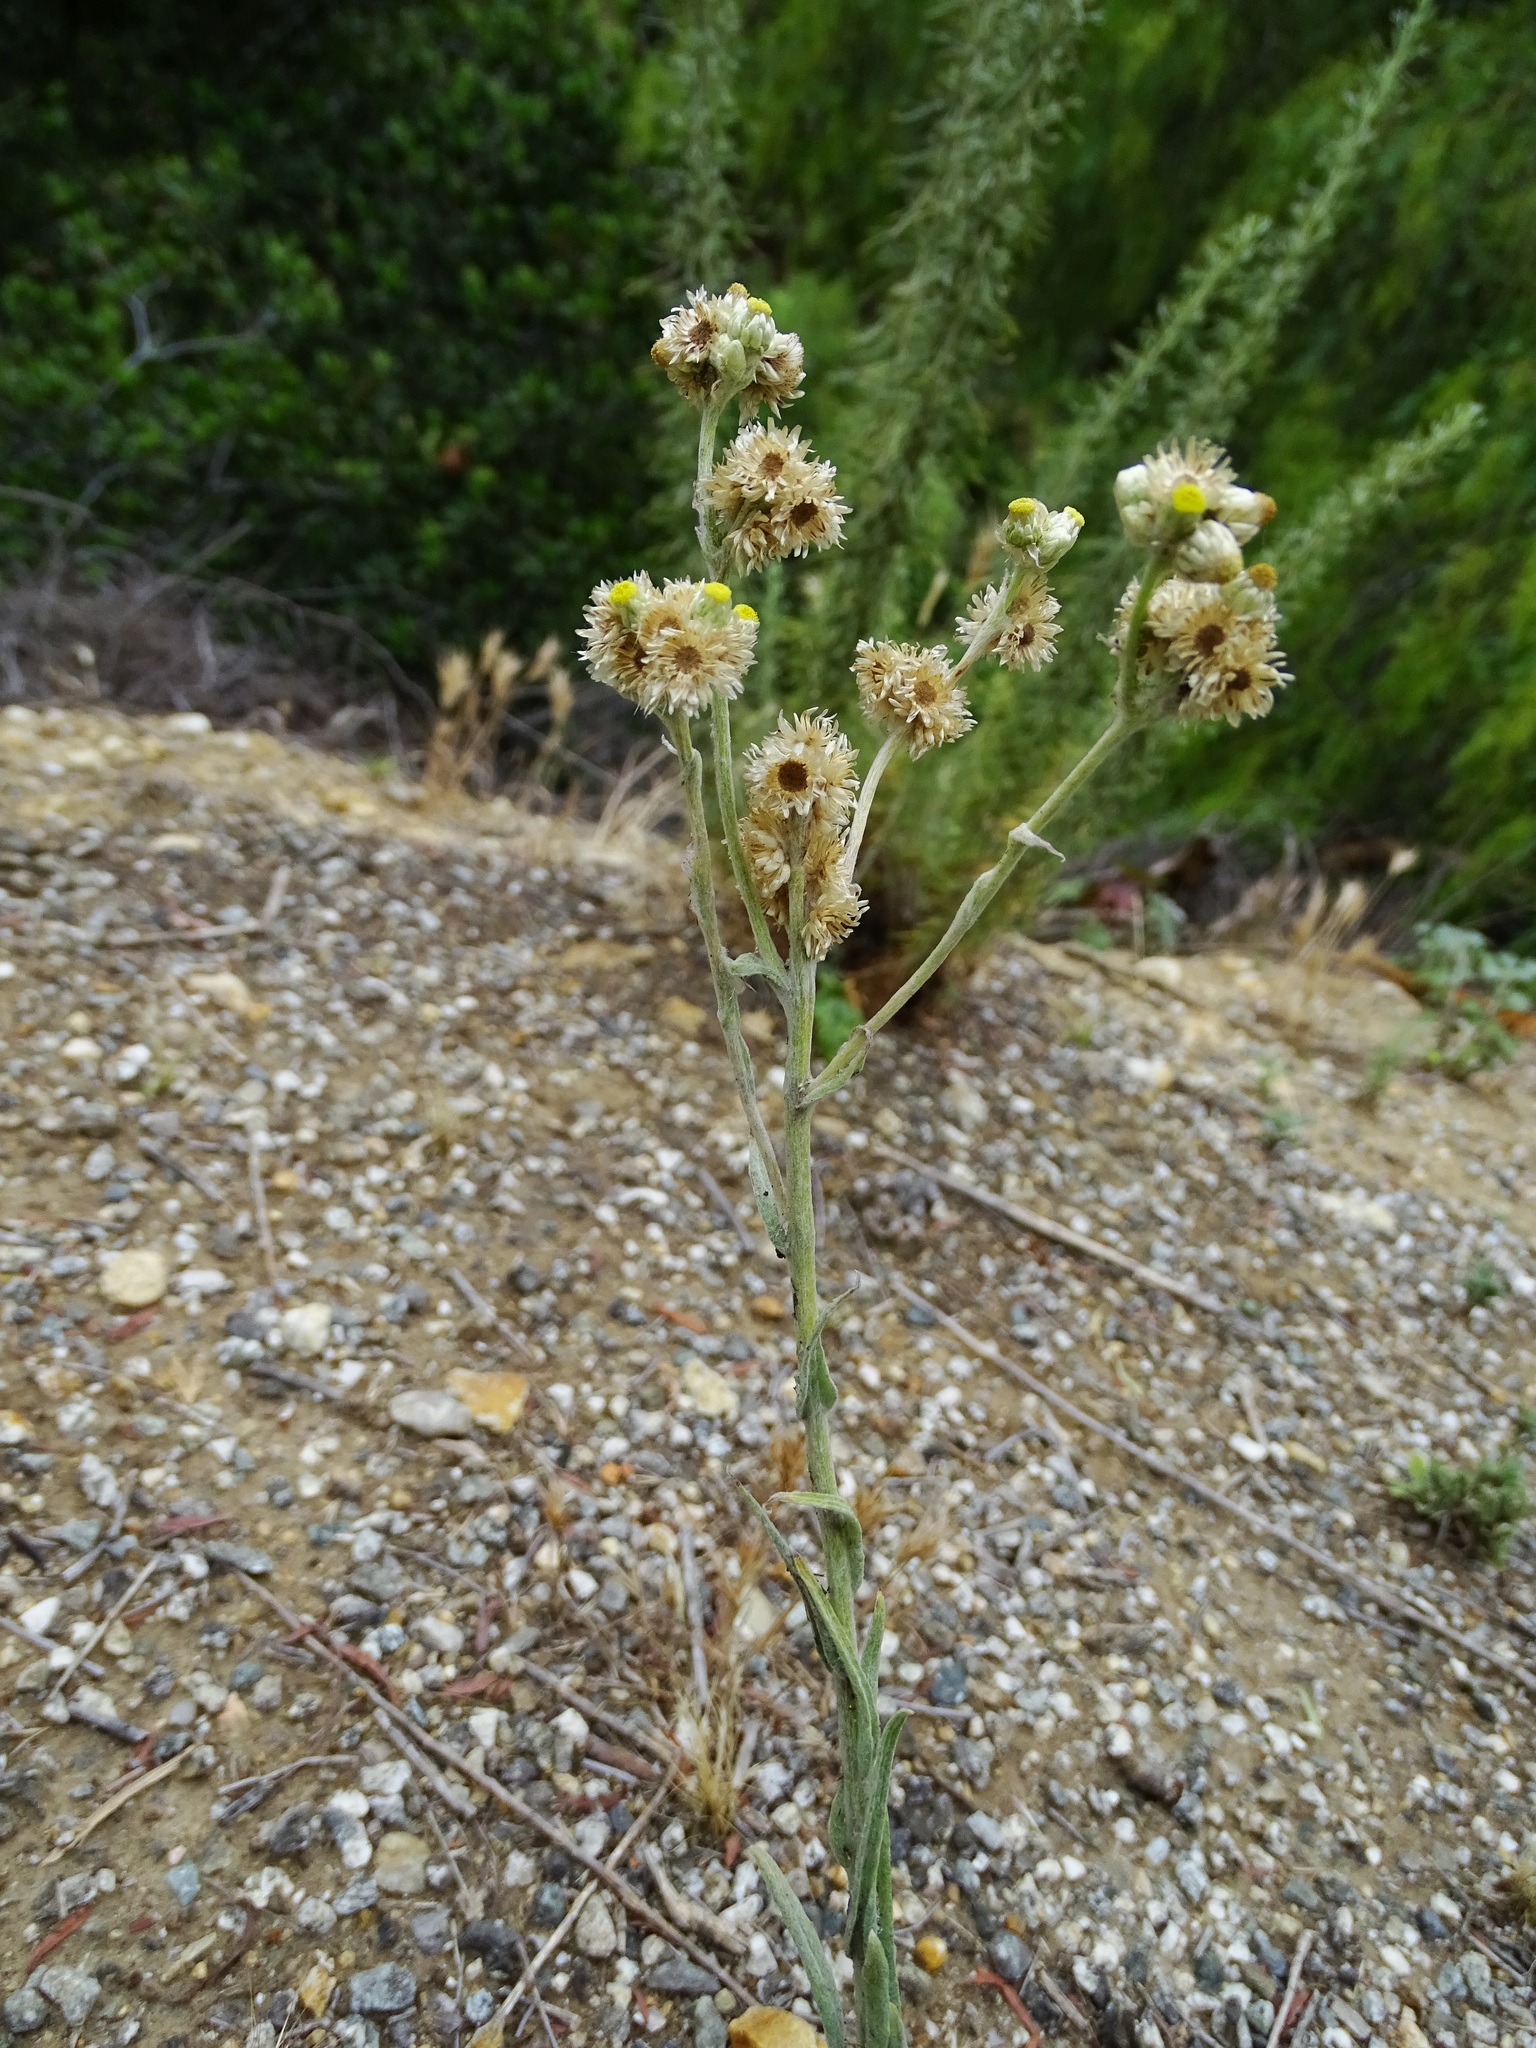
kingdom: Plantae
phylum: Tracheophyta
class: Magnoliopsida
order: Asterales
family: Asteraceae
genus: Pseudognaphalium
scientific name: Pseudognaphalium stramineum
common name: Cotton-batting-plant
